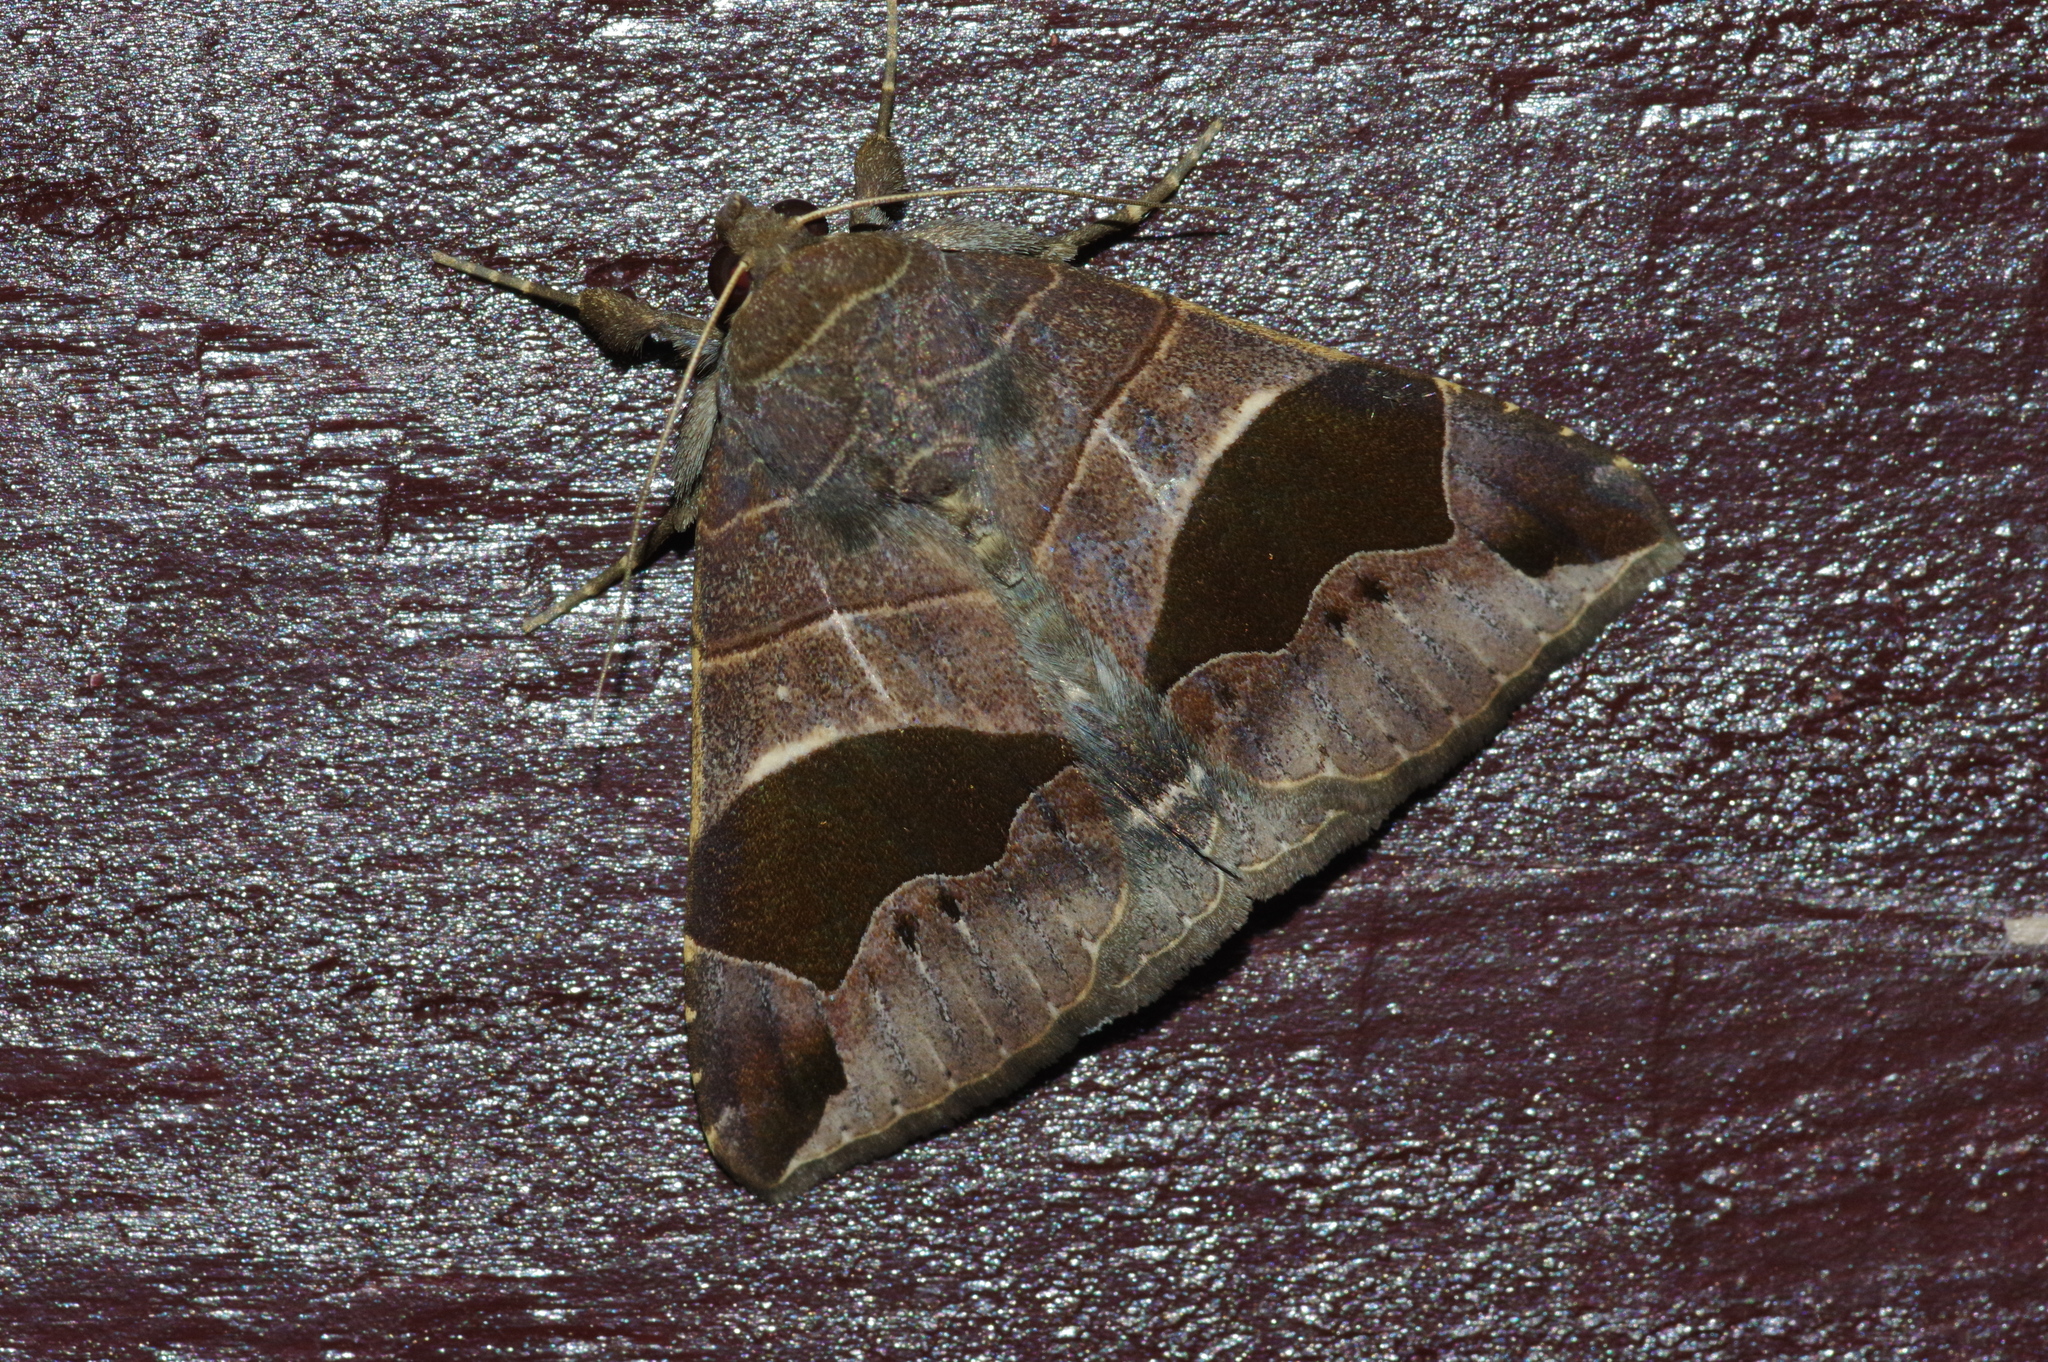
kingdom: Animalia
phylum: Arthropoda
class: Insecta
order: Lepidoptera
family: Erebidae
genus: Bastilla
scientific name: Bastilla joviana
